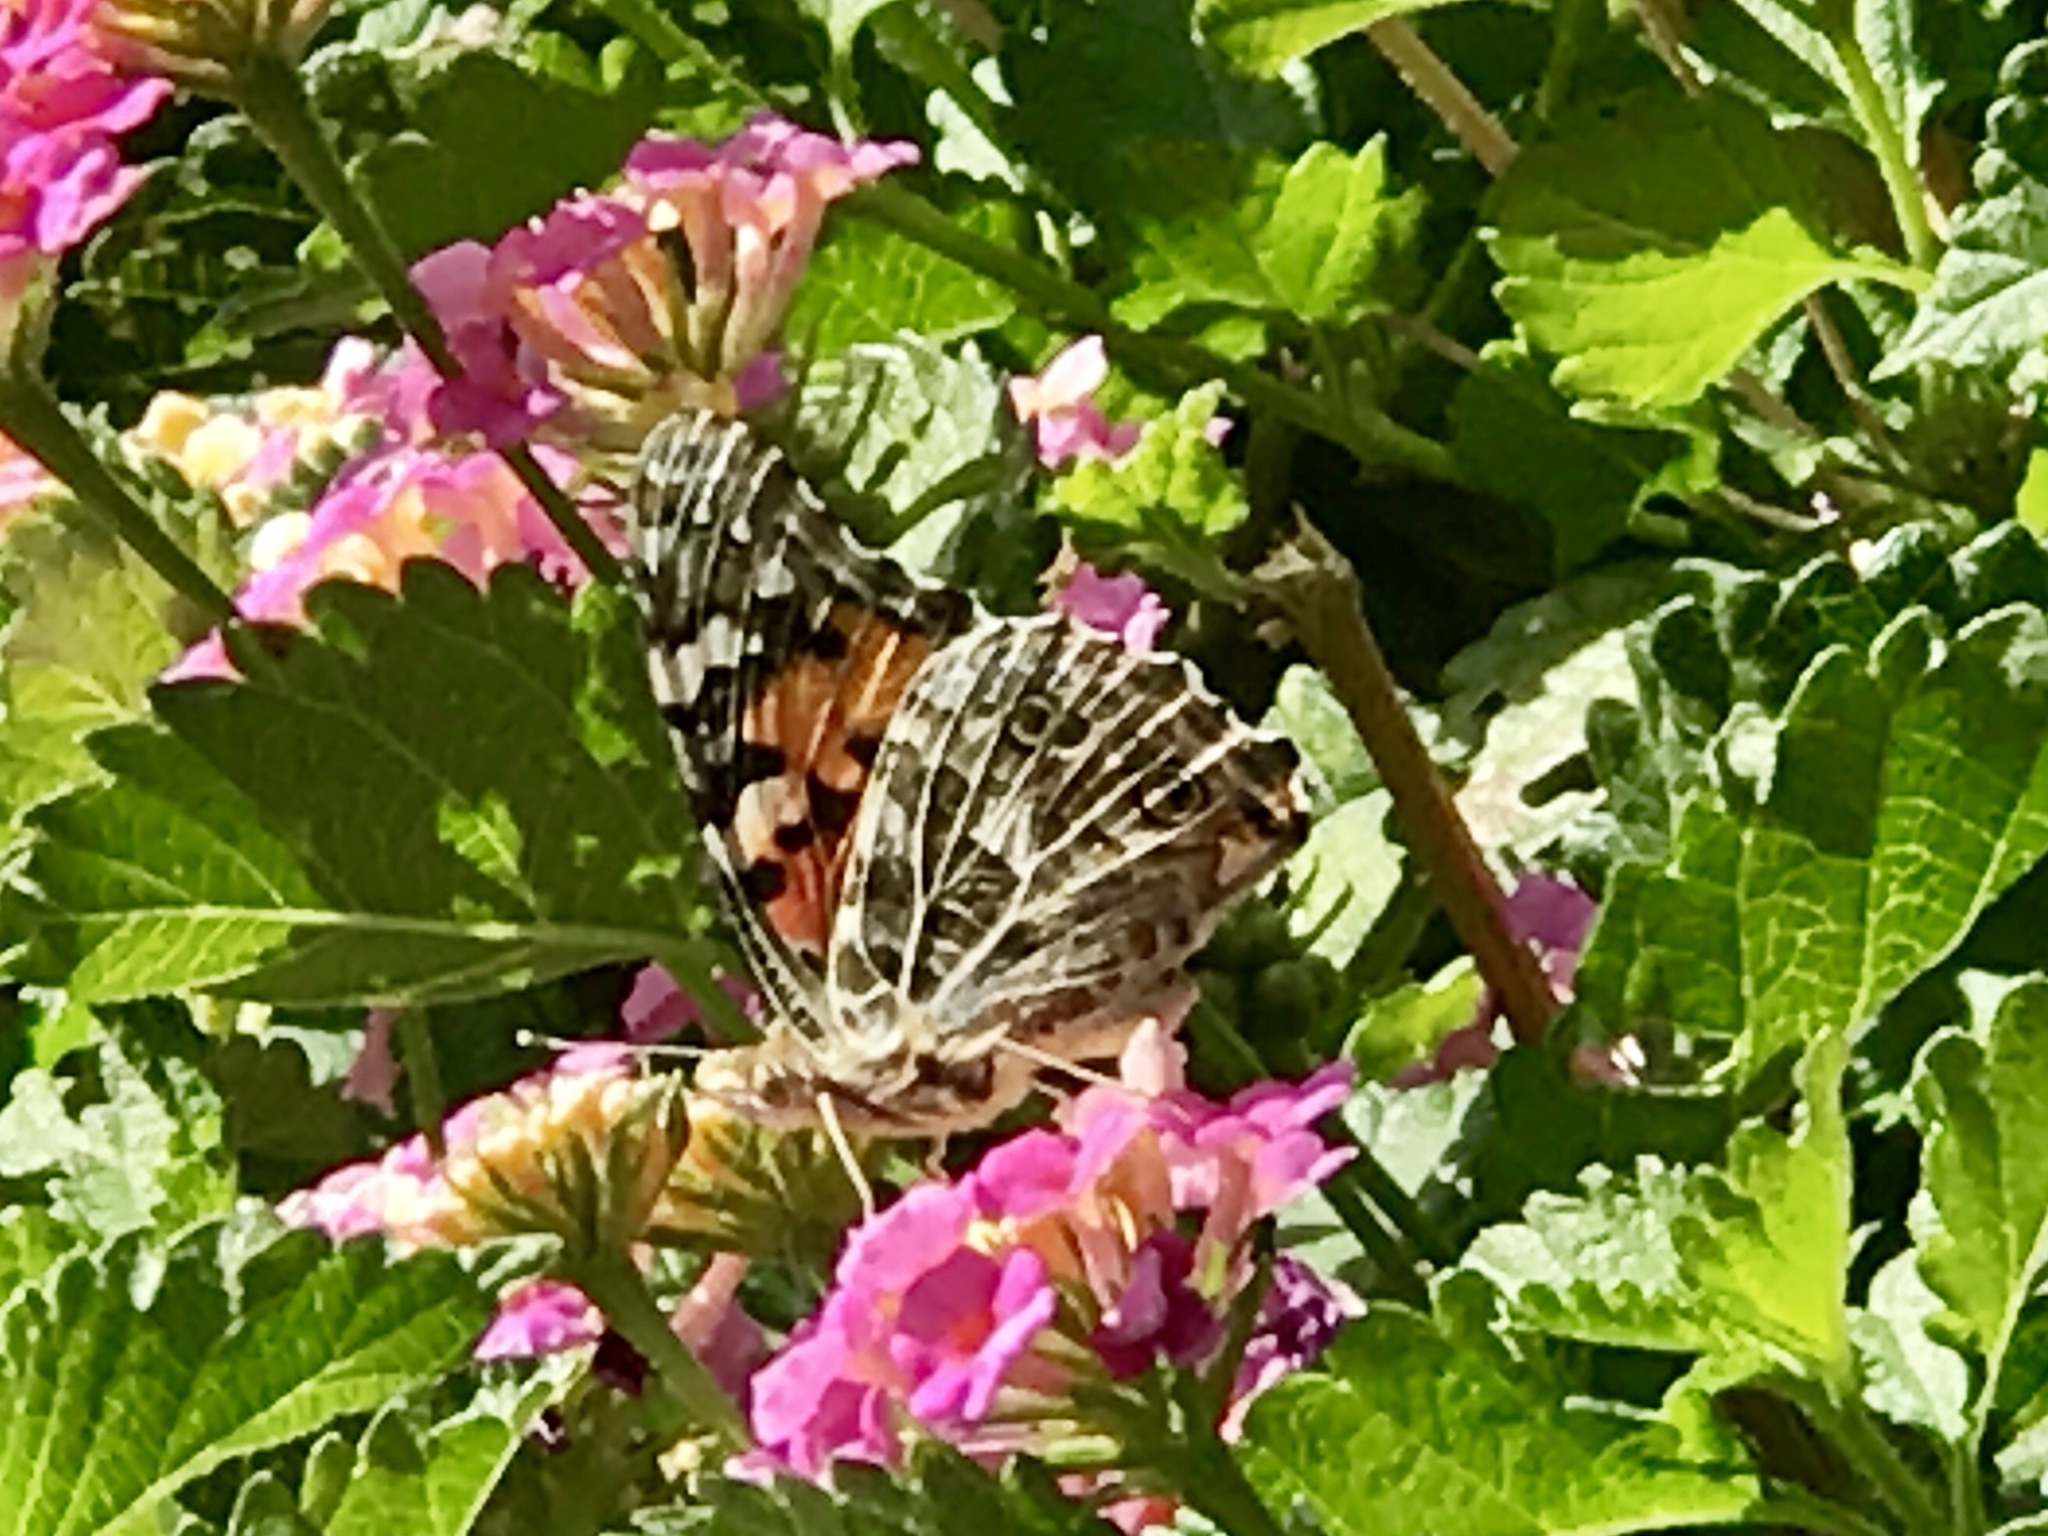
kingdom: Animalia
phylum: Arthropoda
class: Insecta
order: Lepidoptera
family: Nymphalidae
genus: Vanessa
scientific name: Vanessa cardui
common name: Painted lady
